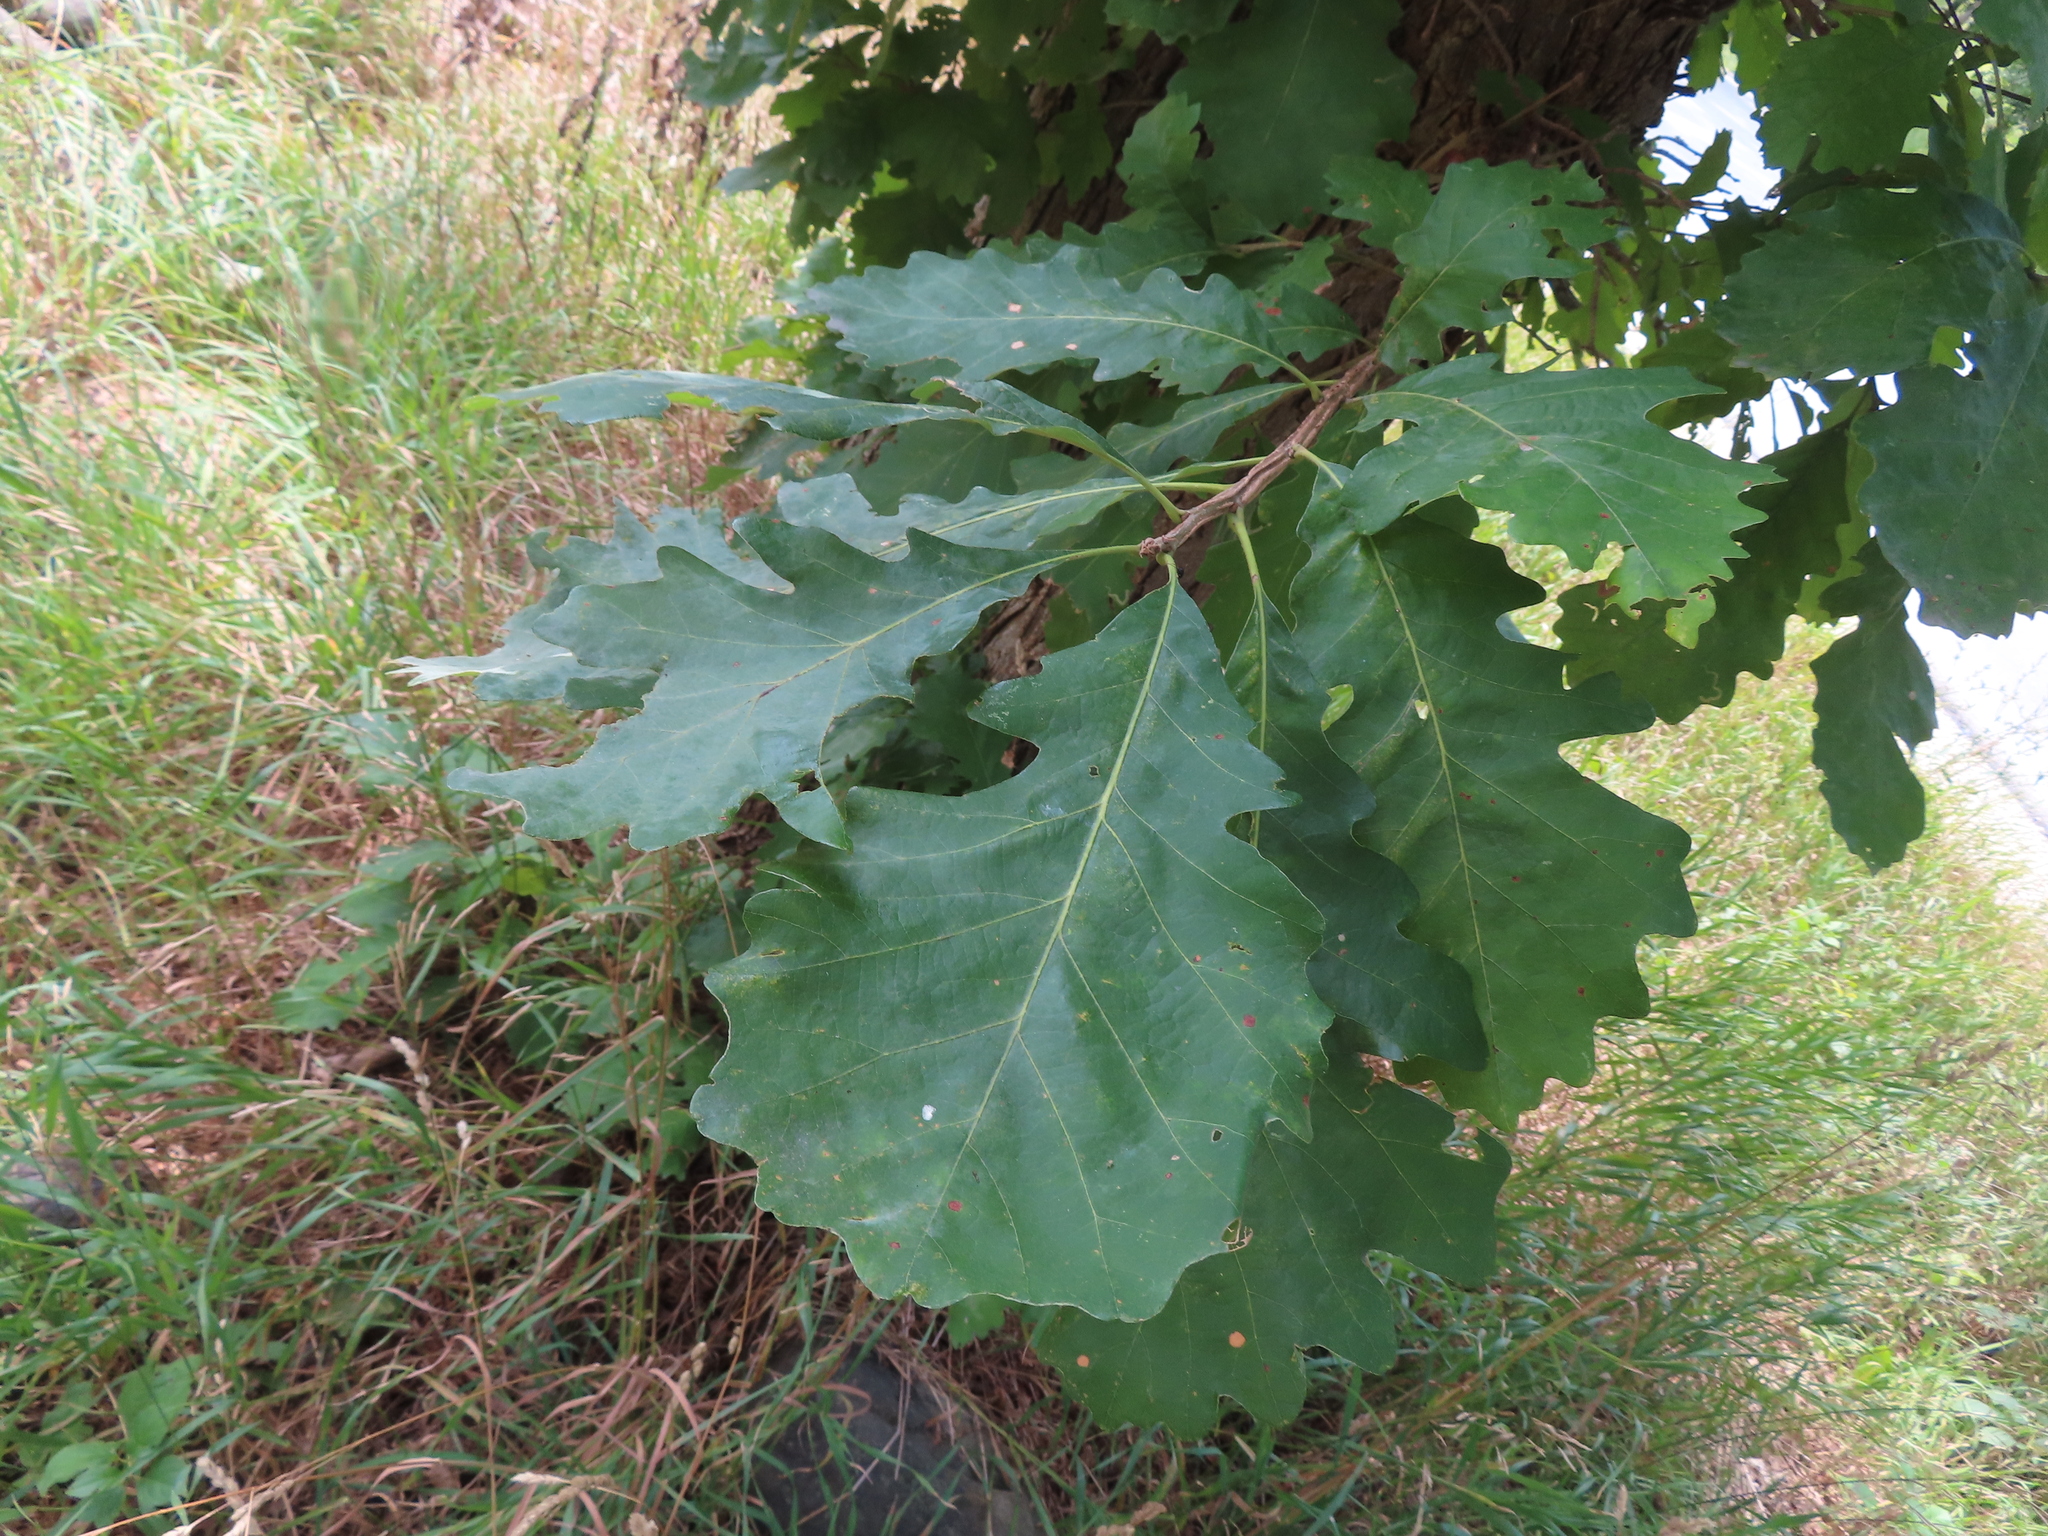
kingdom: Plantae
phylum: Tracheophyta
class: Magnoliopsida
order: Fagales
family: Fagaceae
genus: Quercus
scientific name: Quercus macrocarpa
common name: Bur oak
